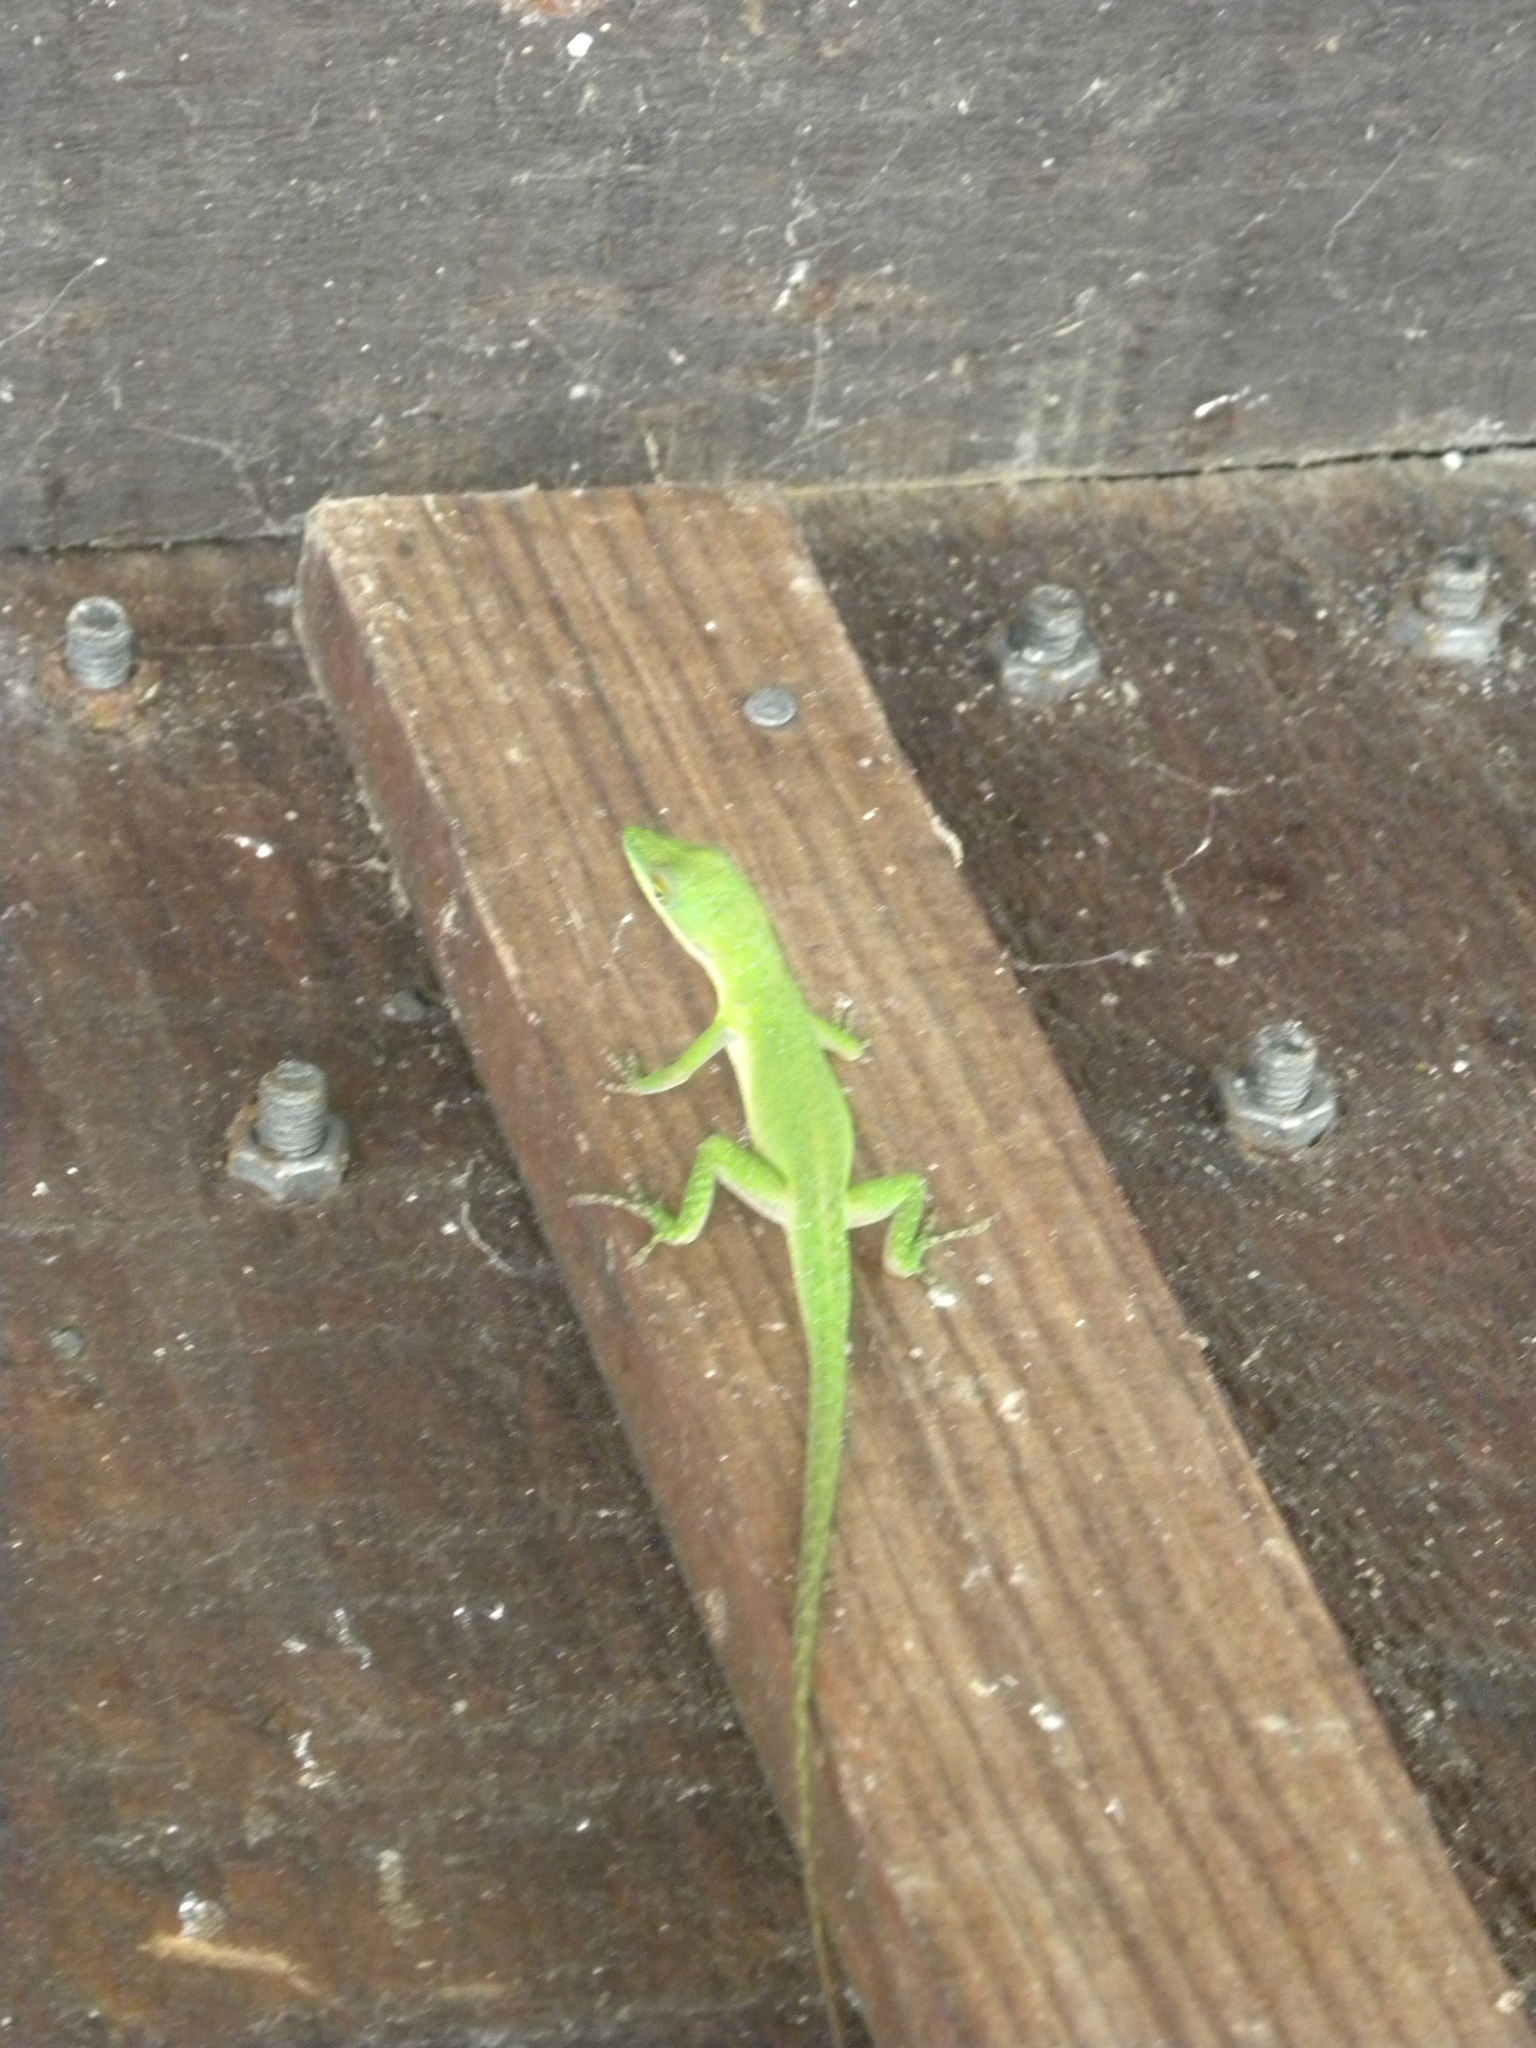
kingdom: Animalia
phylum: Chordata
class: Squamata
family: Dactyloidae
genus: Anolis
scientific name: Anolis allisoni
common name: Allison's anole
